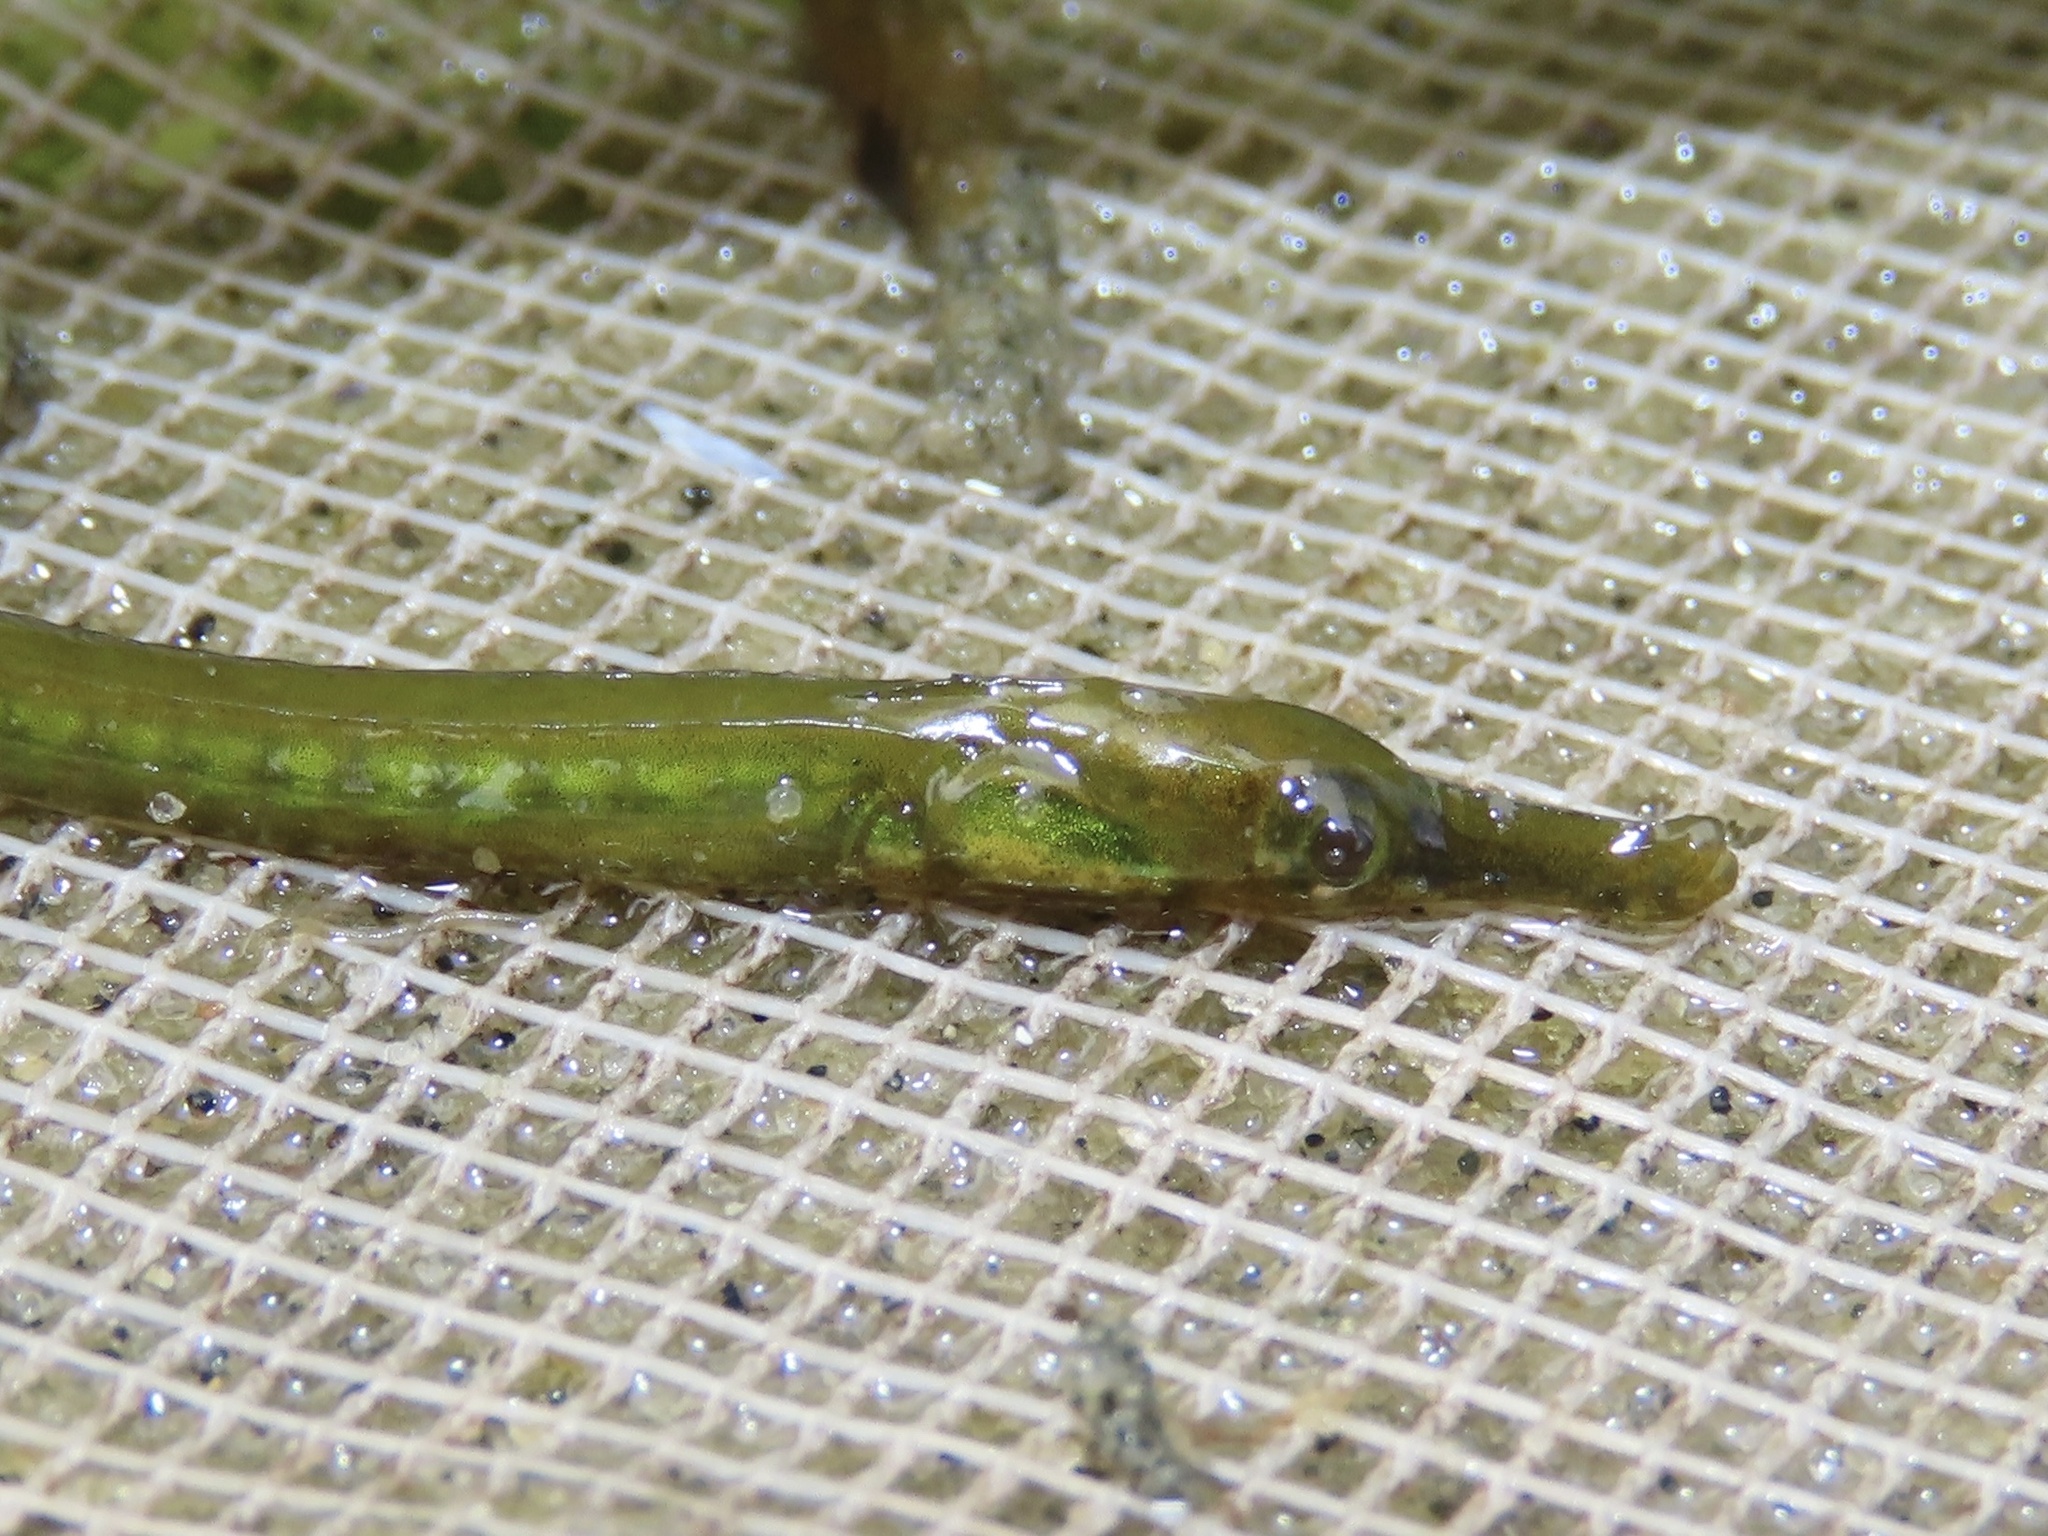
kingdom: Animalia
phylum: Chordata
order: Syngnathiformes
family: Syngnathidae
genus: Syngnathus
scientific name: Syngnathus fuscus
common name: Northern pipefish
